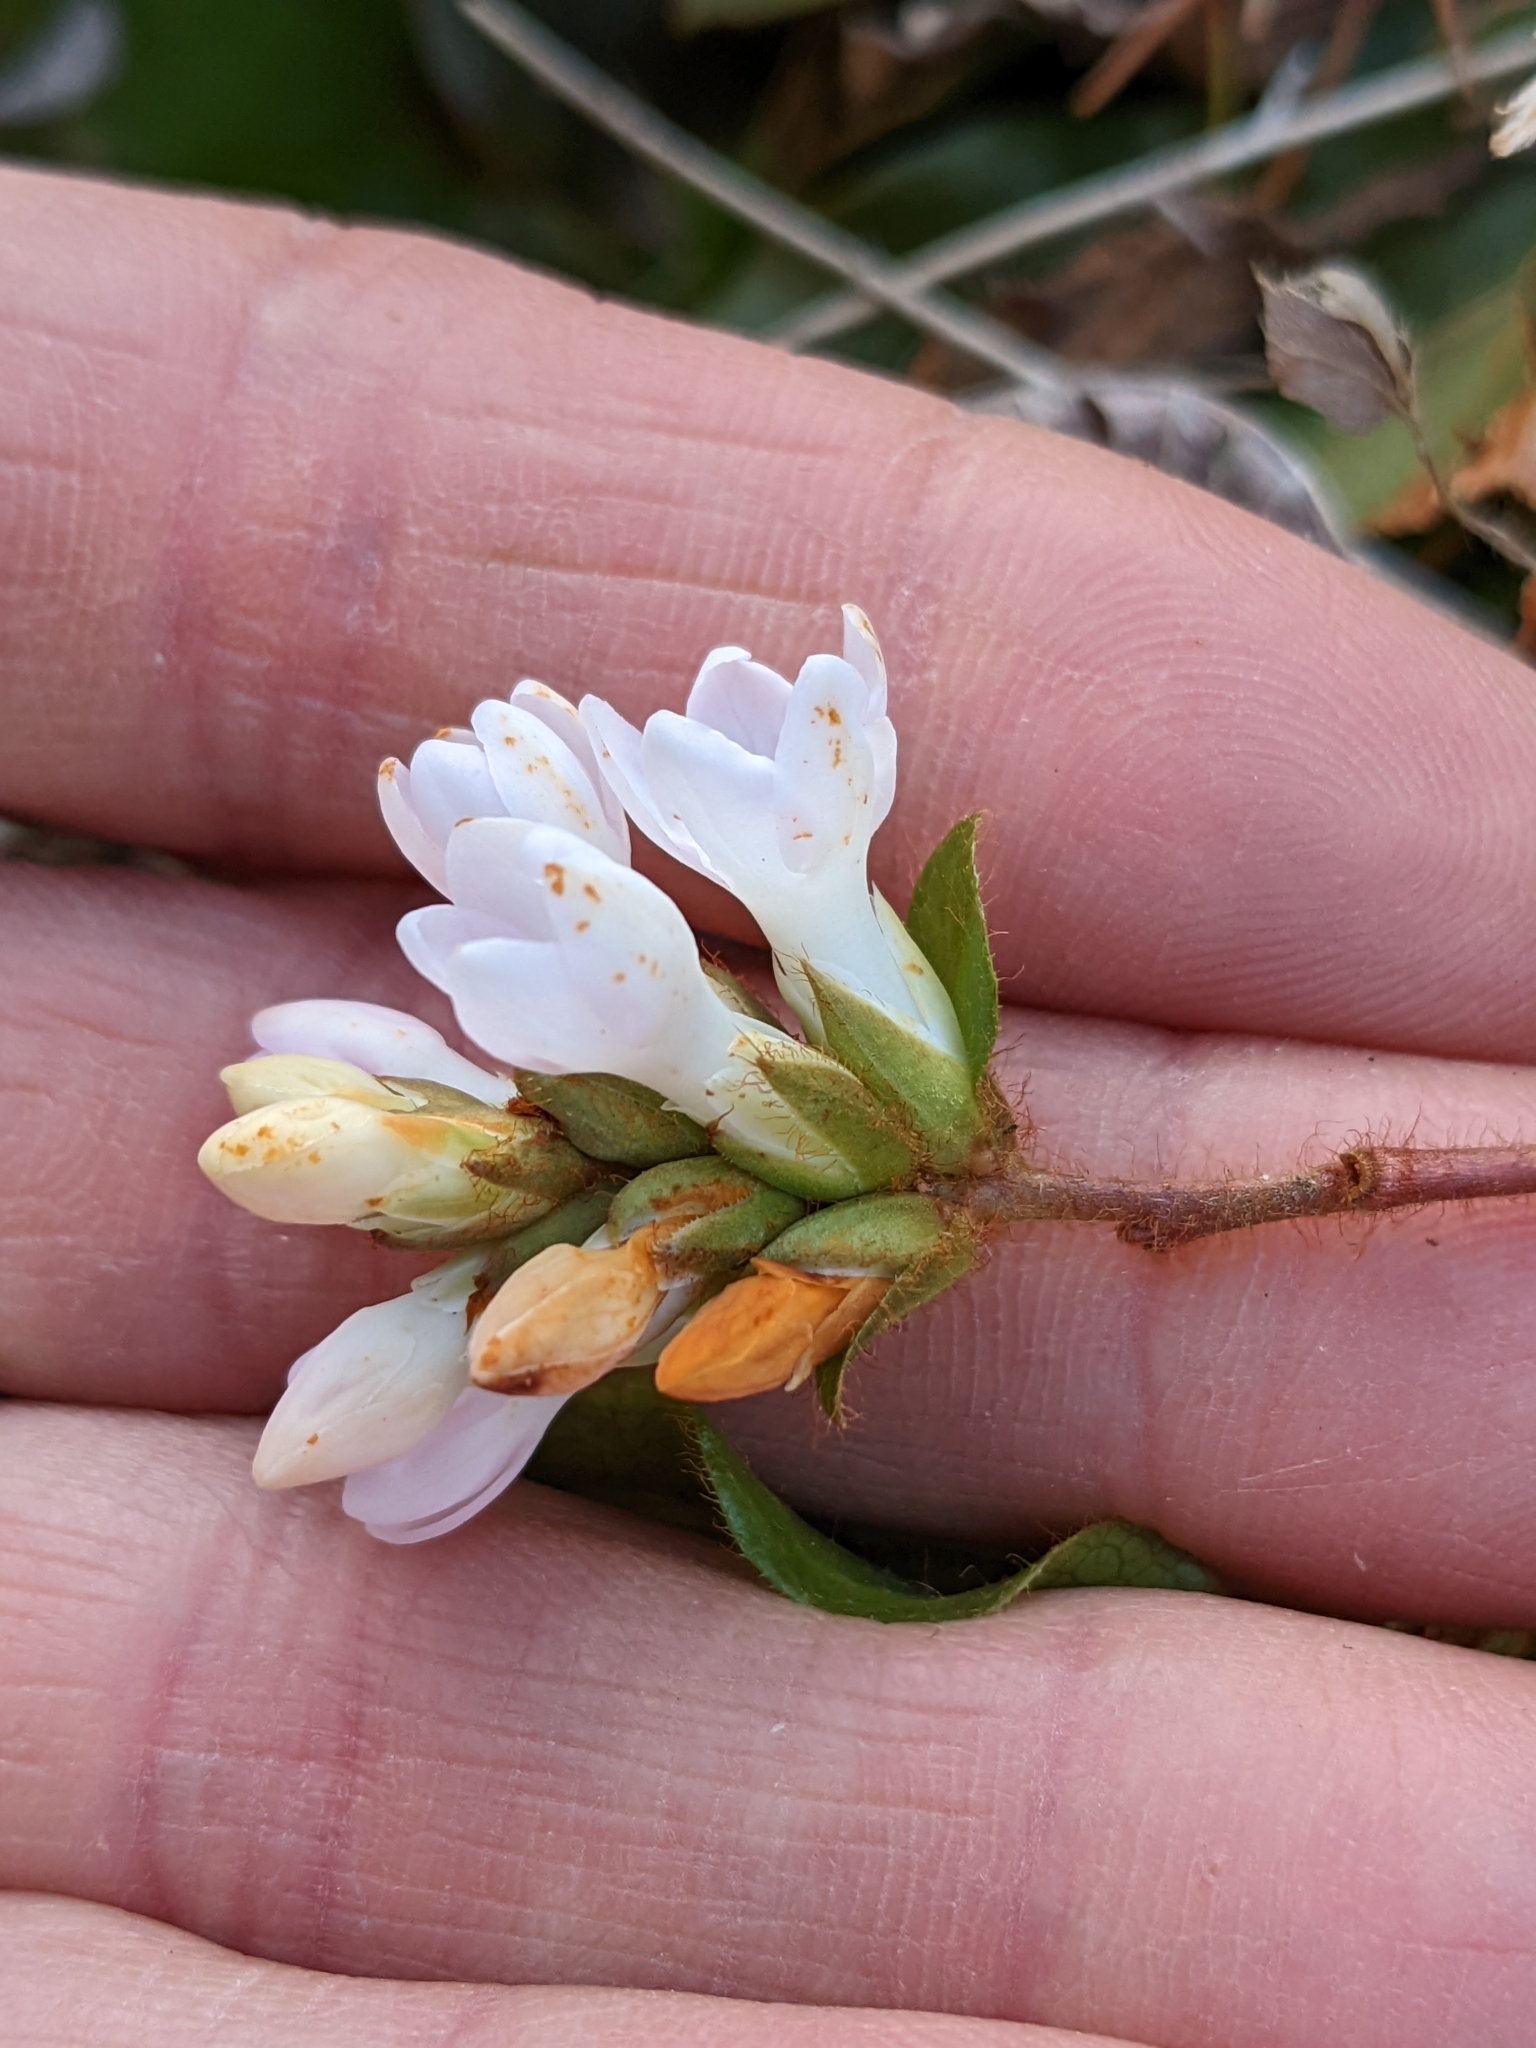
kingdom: Plantae
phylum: Tracheophyta
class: Magnoliopsida
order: Ericales
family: Ericaceae
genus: Epigaea
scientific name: Epigaea repens
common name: Gravelroot
